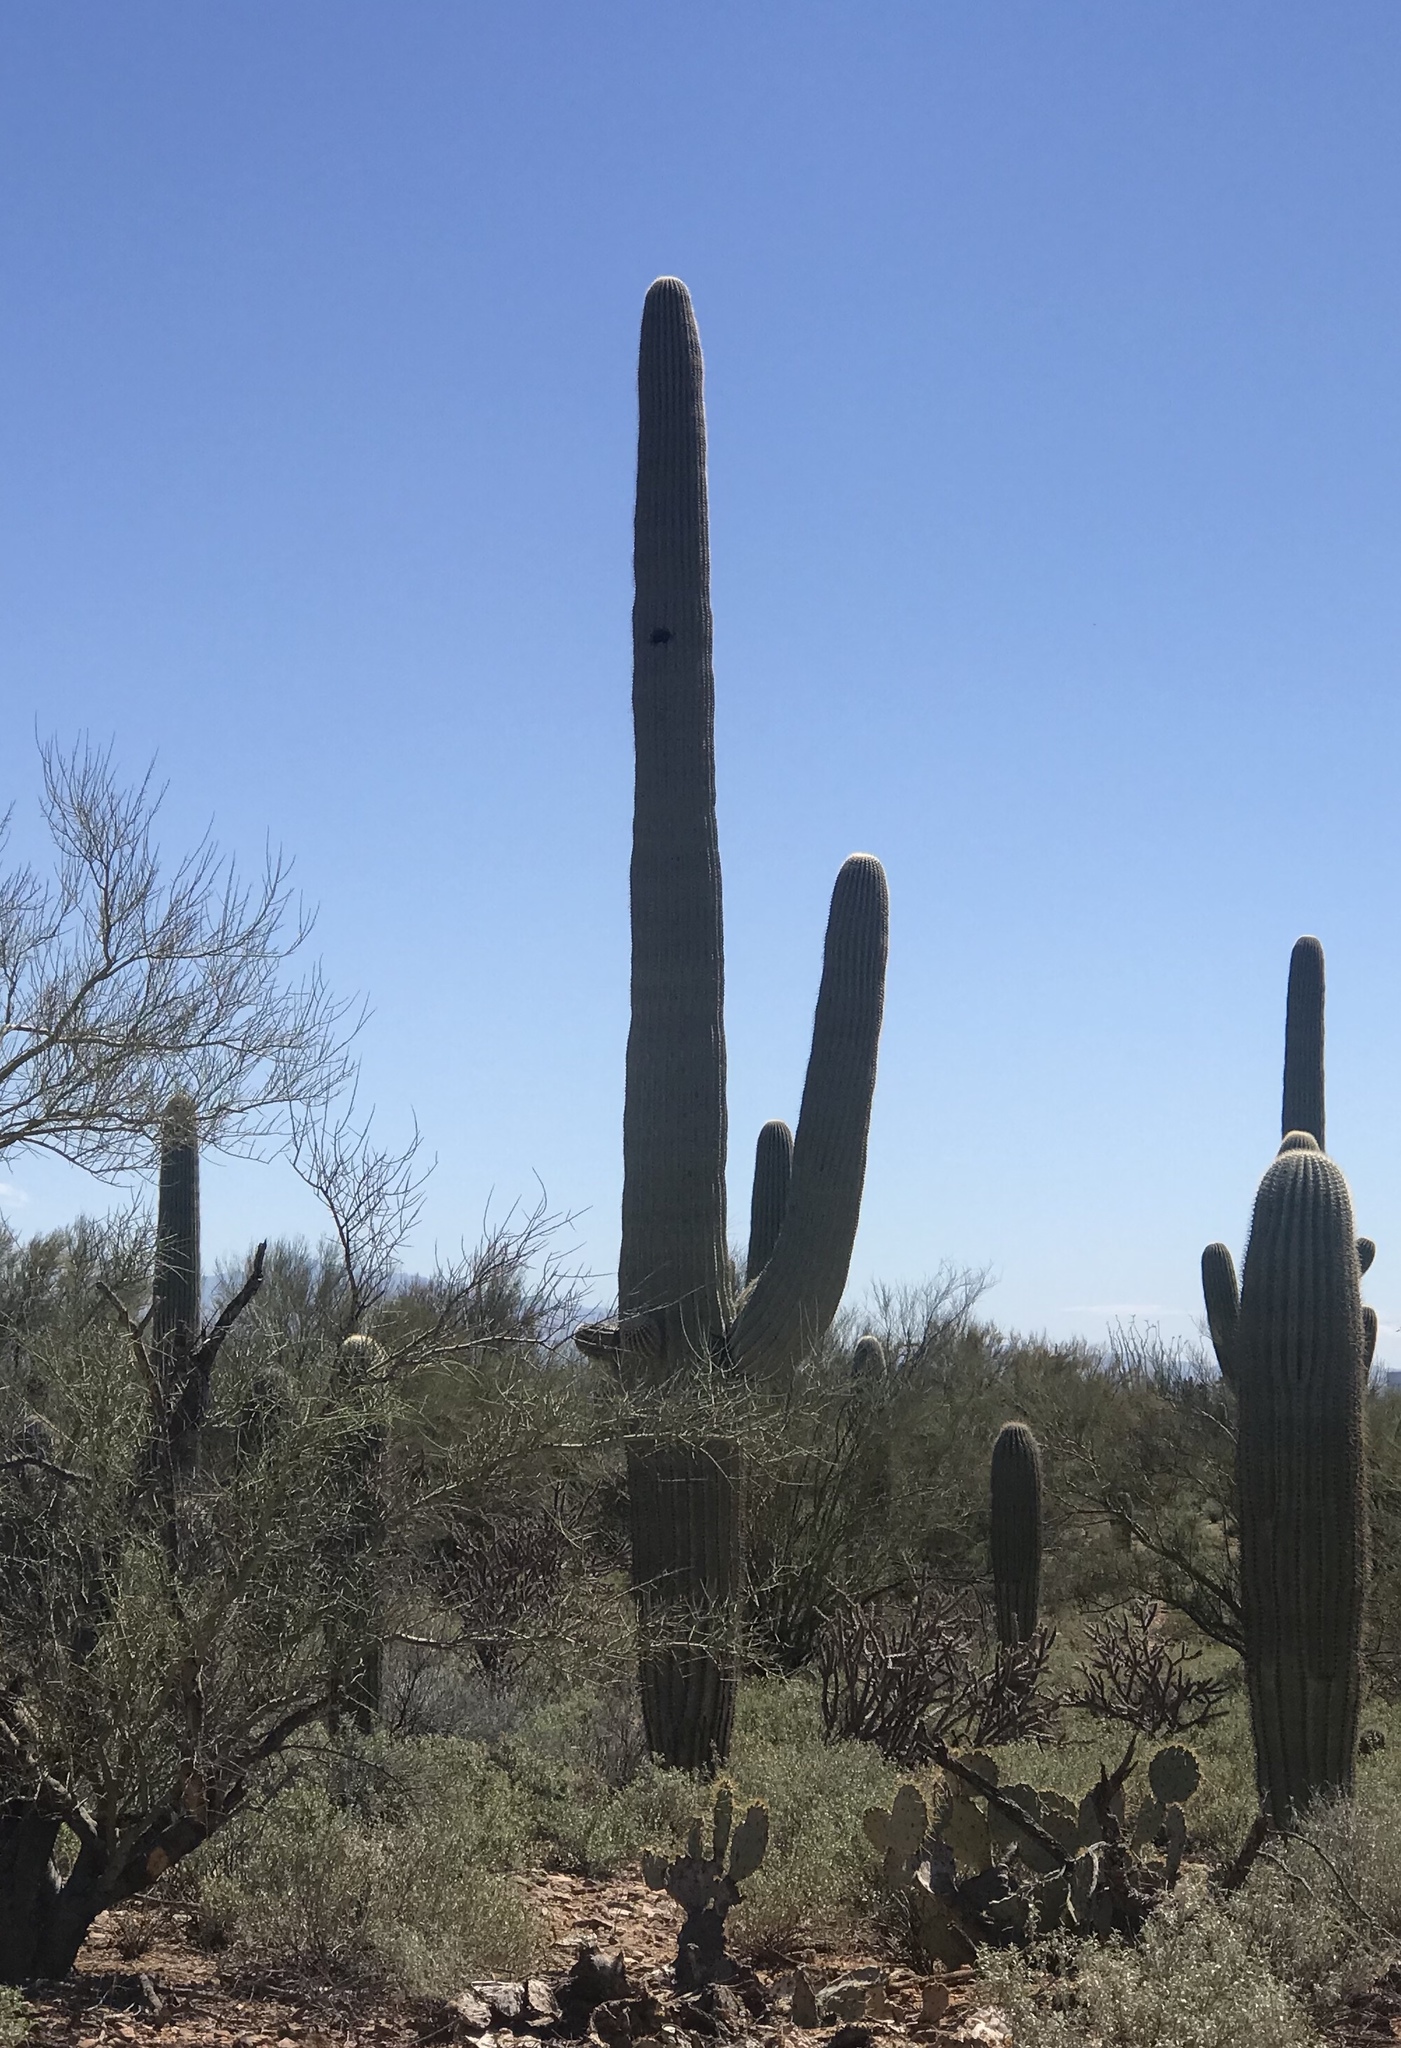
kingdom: Plantae
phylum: Tracheophyta
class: Magnoliopsida
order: Caryophyllales
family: Cactaceae
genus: Carnegiea
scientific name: Carnegiea gigantea
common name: Saguaro
